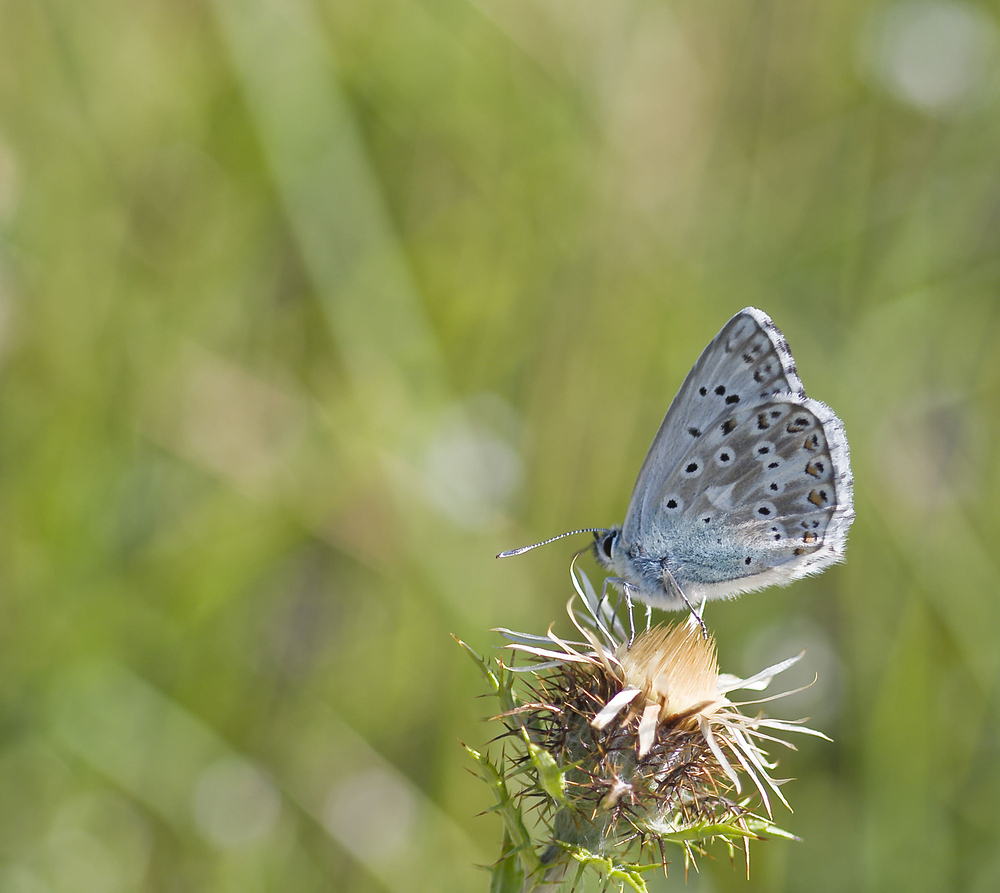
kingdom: Animalia
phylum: Arthropoda
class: Insecta
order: Lepidoptera
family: Lycaenidae
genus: Lysandra
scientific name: Lysandra coridon
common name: Chalkhill blue
